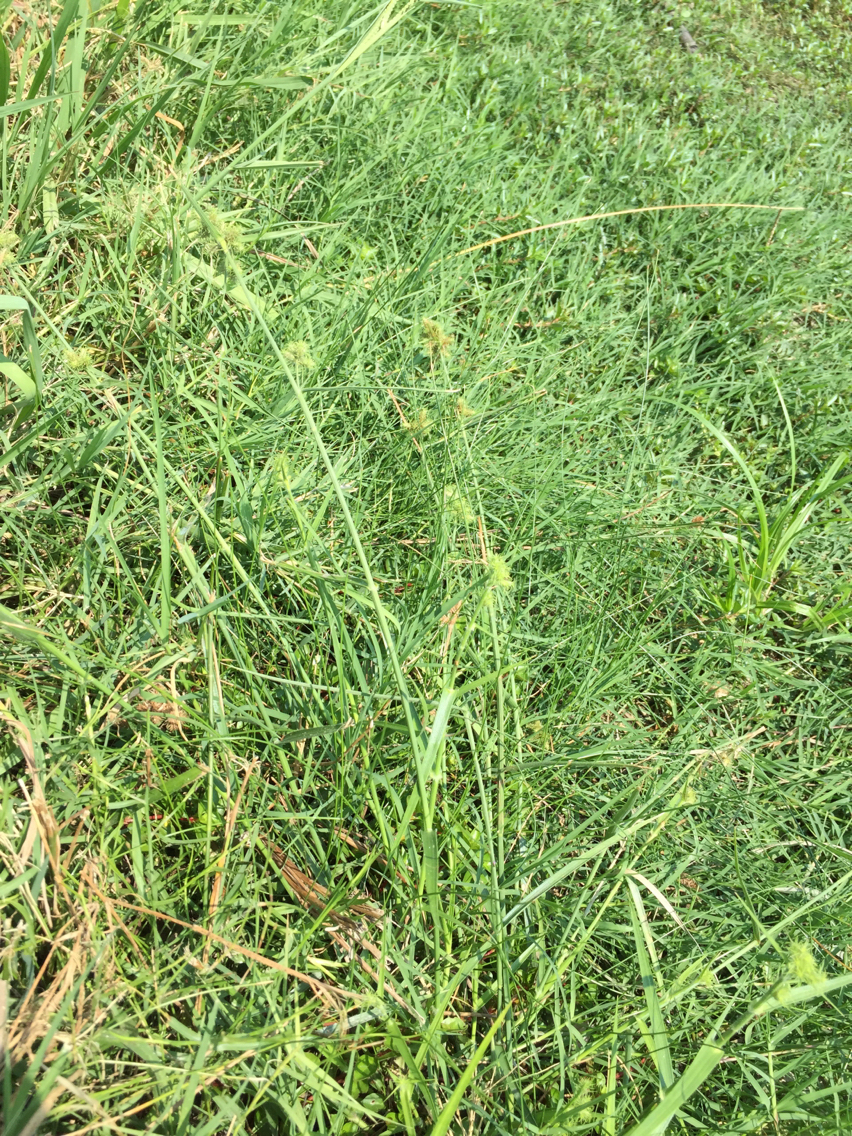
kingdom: Plantae
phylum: Tracheophyta
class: Liliopsida
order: Poales
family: Cyperaceae
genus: Fuirena
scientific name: Fuirena simplex
